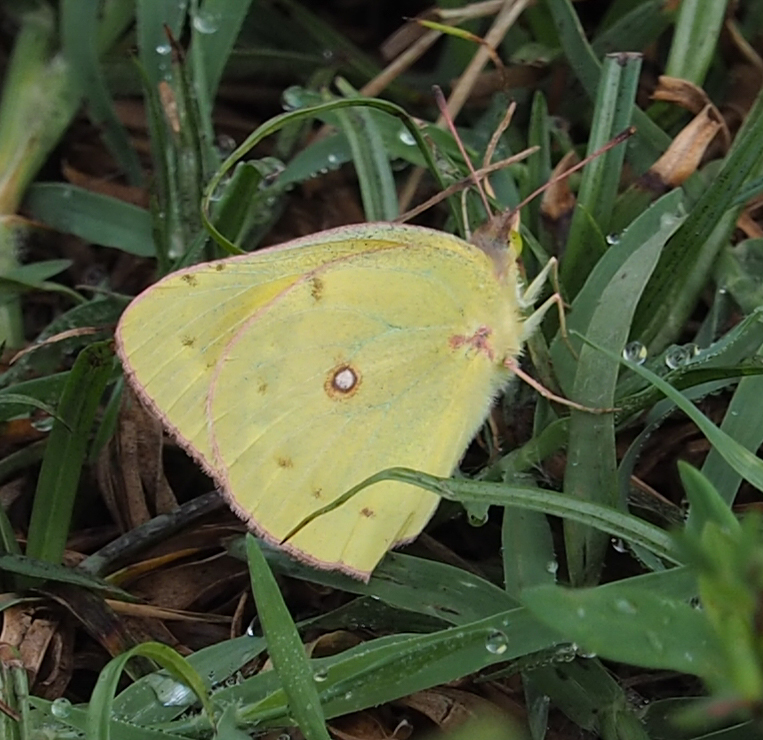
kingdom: Animalia
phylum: Arthropoda
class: Insecta
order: Lepidoptera
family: Pieridae
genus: Colias
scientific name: Colias eurytheme
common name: Alfalfa butterfly
